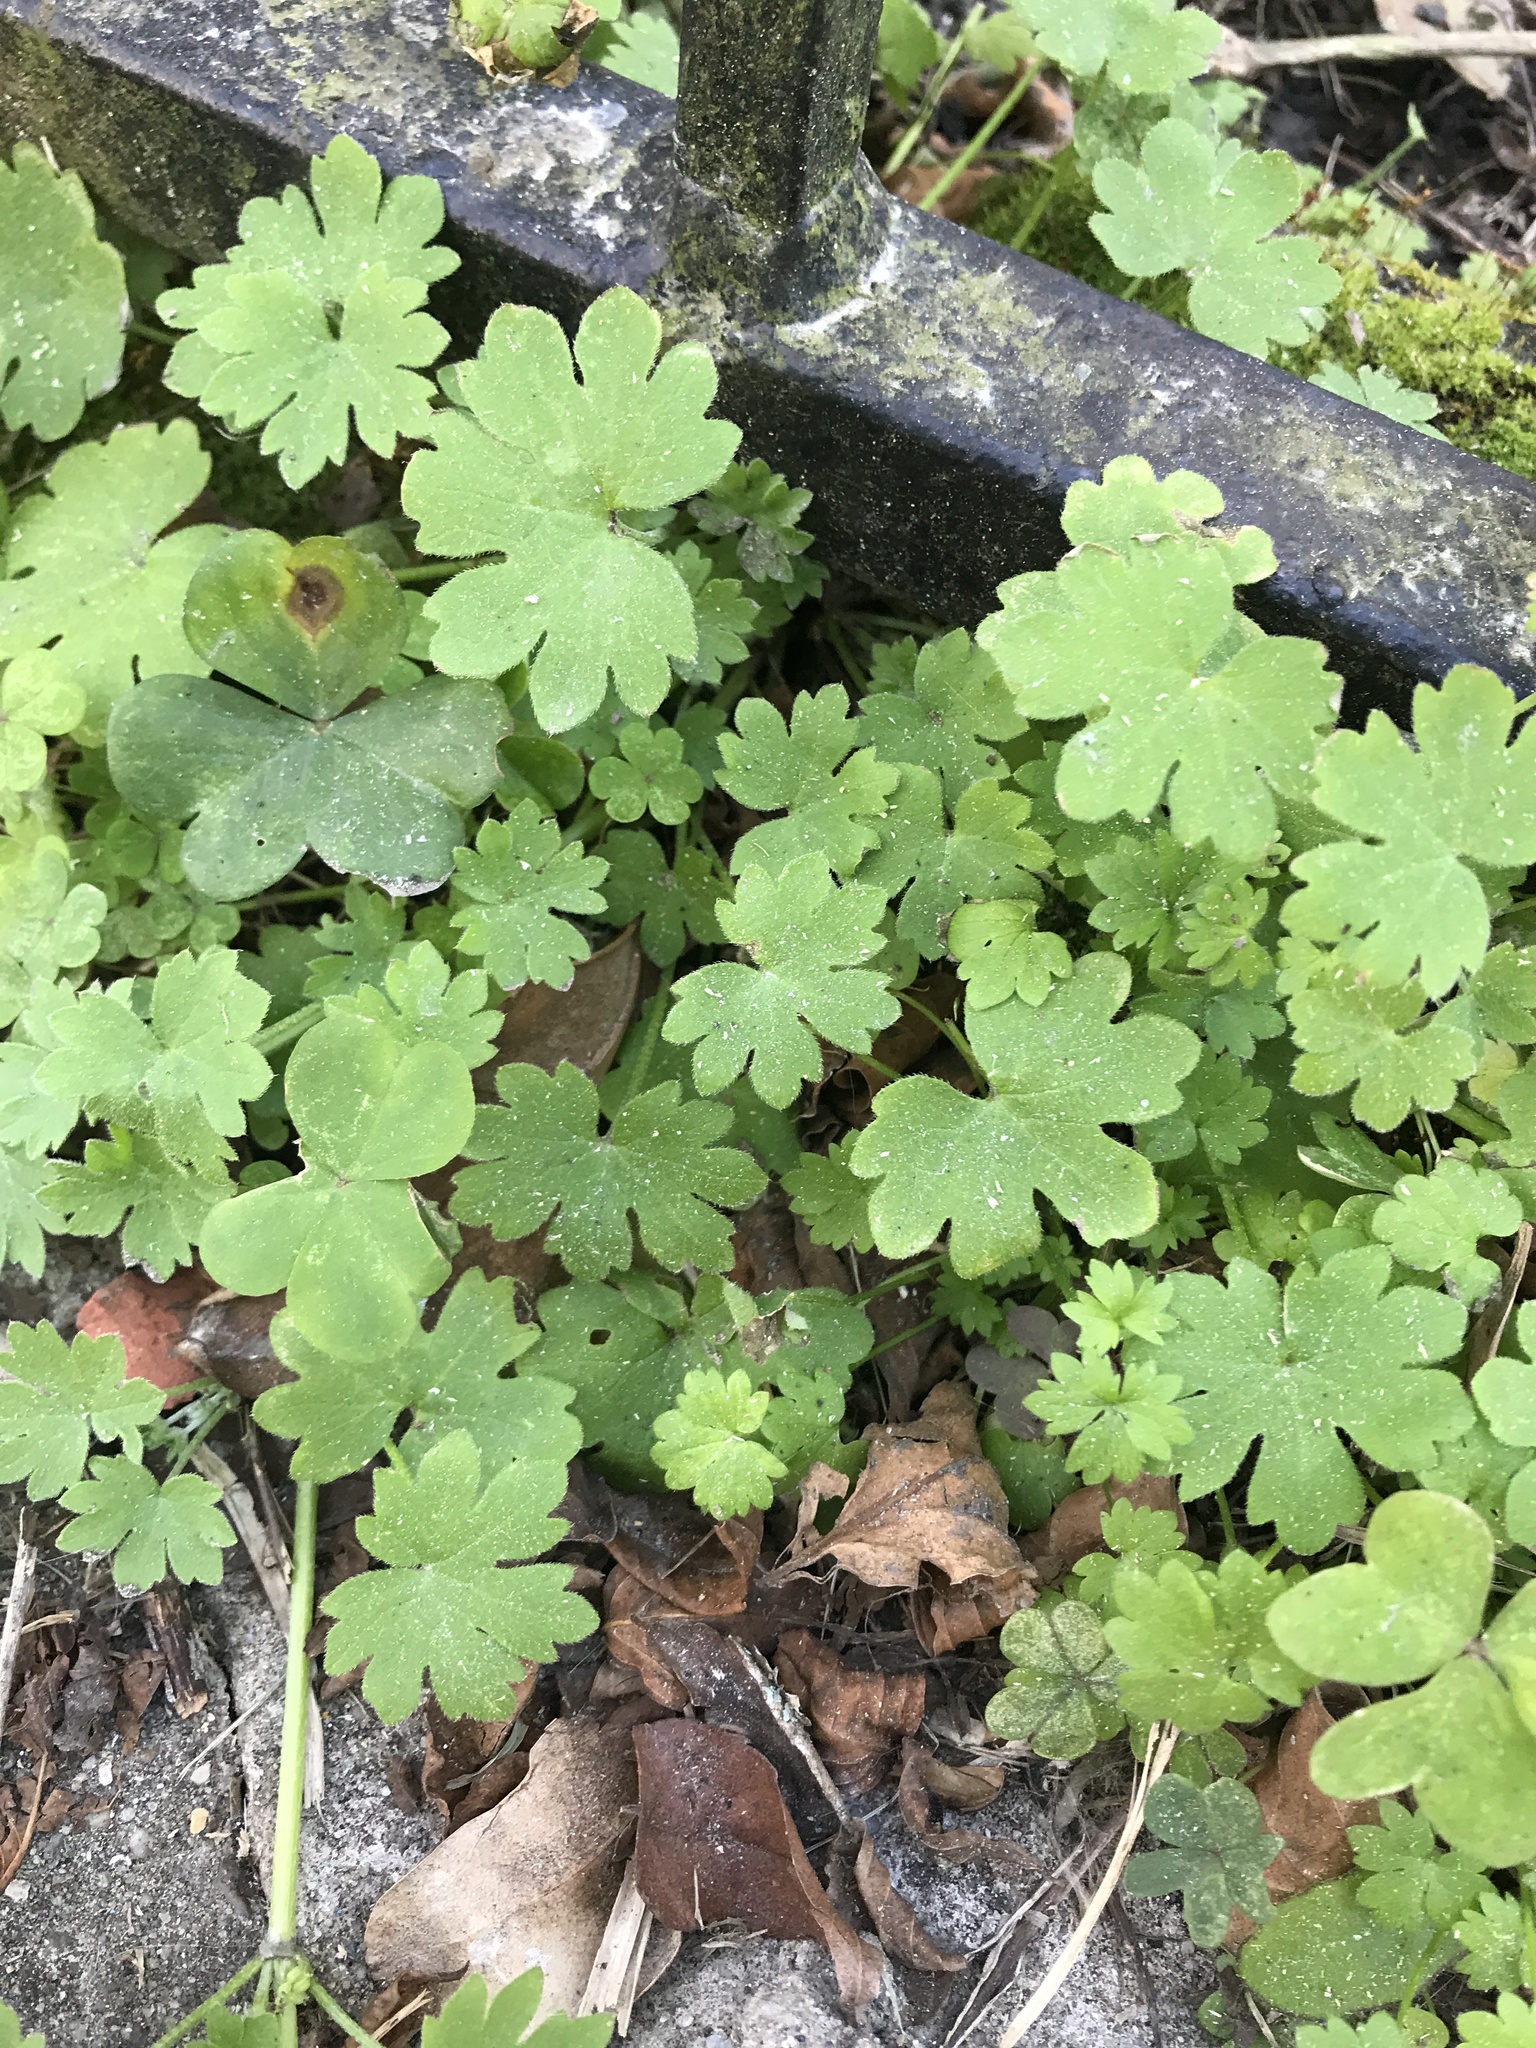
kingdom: Plantae
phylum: Tracheophyta
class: Magnoliopsida
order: Apiales
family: Apiaceae
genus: Bowlesia
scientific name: Bowlesia incana
